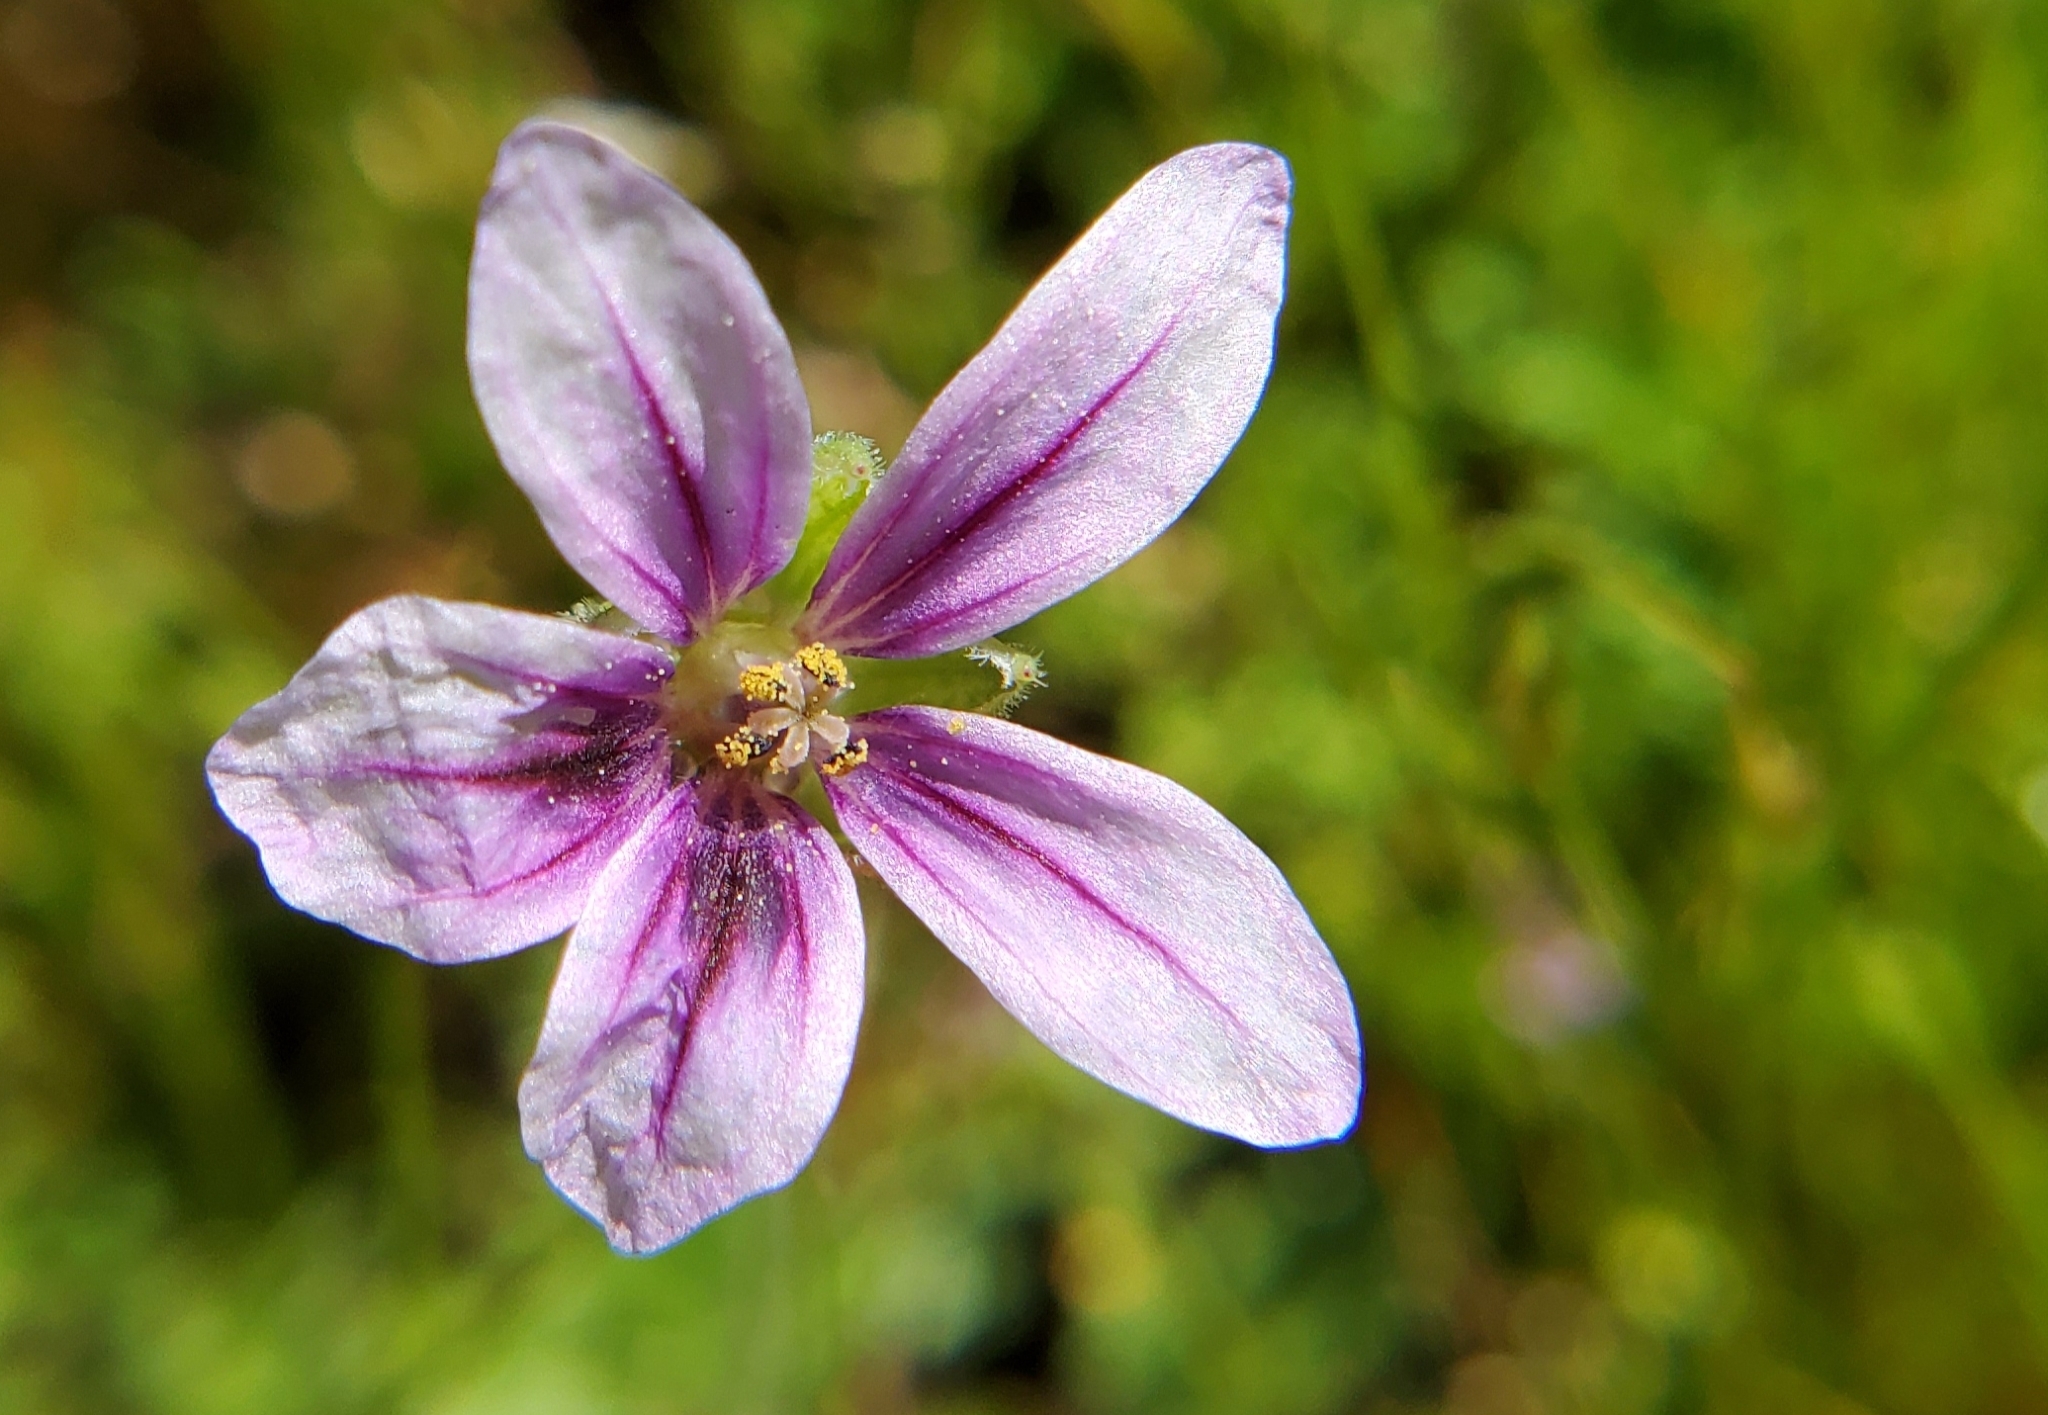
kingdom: Plantae
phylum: Tracheophyta
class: Magnoliopsida
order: Geraniales
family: Geraniaceae
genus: Erodium
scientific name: Erodium botrys
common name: Mediterranean stork's-bill
